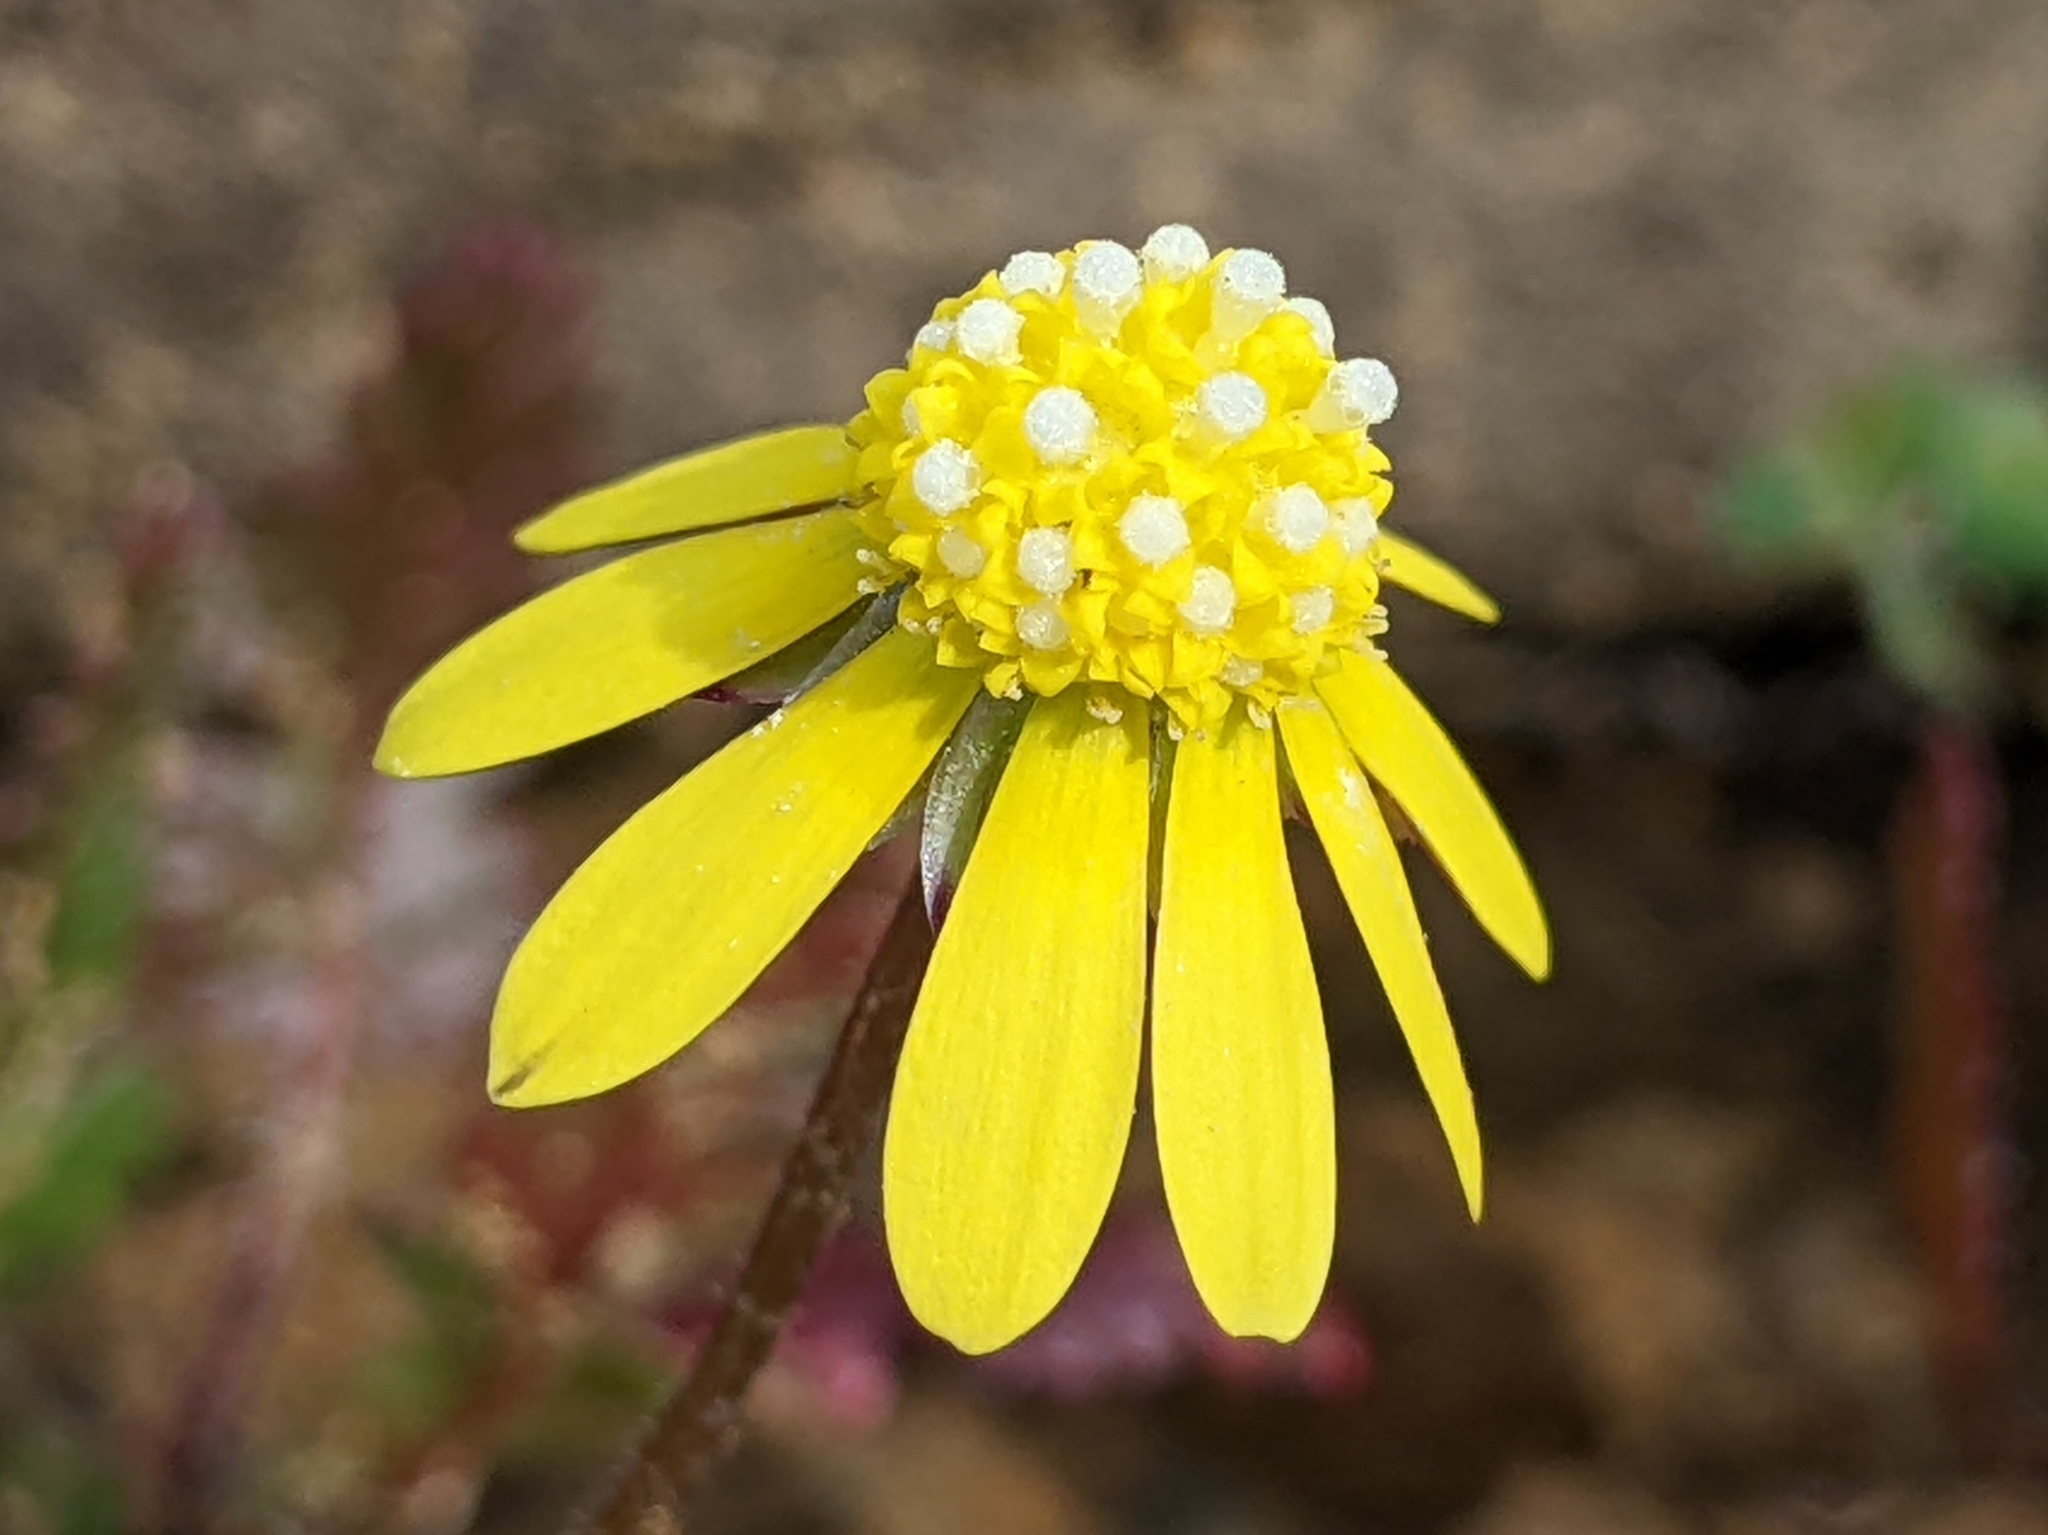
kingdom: Plantae
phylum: Tracheophyta
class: Magnoliopsida
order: Asterales
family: Asteraceae
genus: Blennosperma
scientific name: Blennosperma nanum
